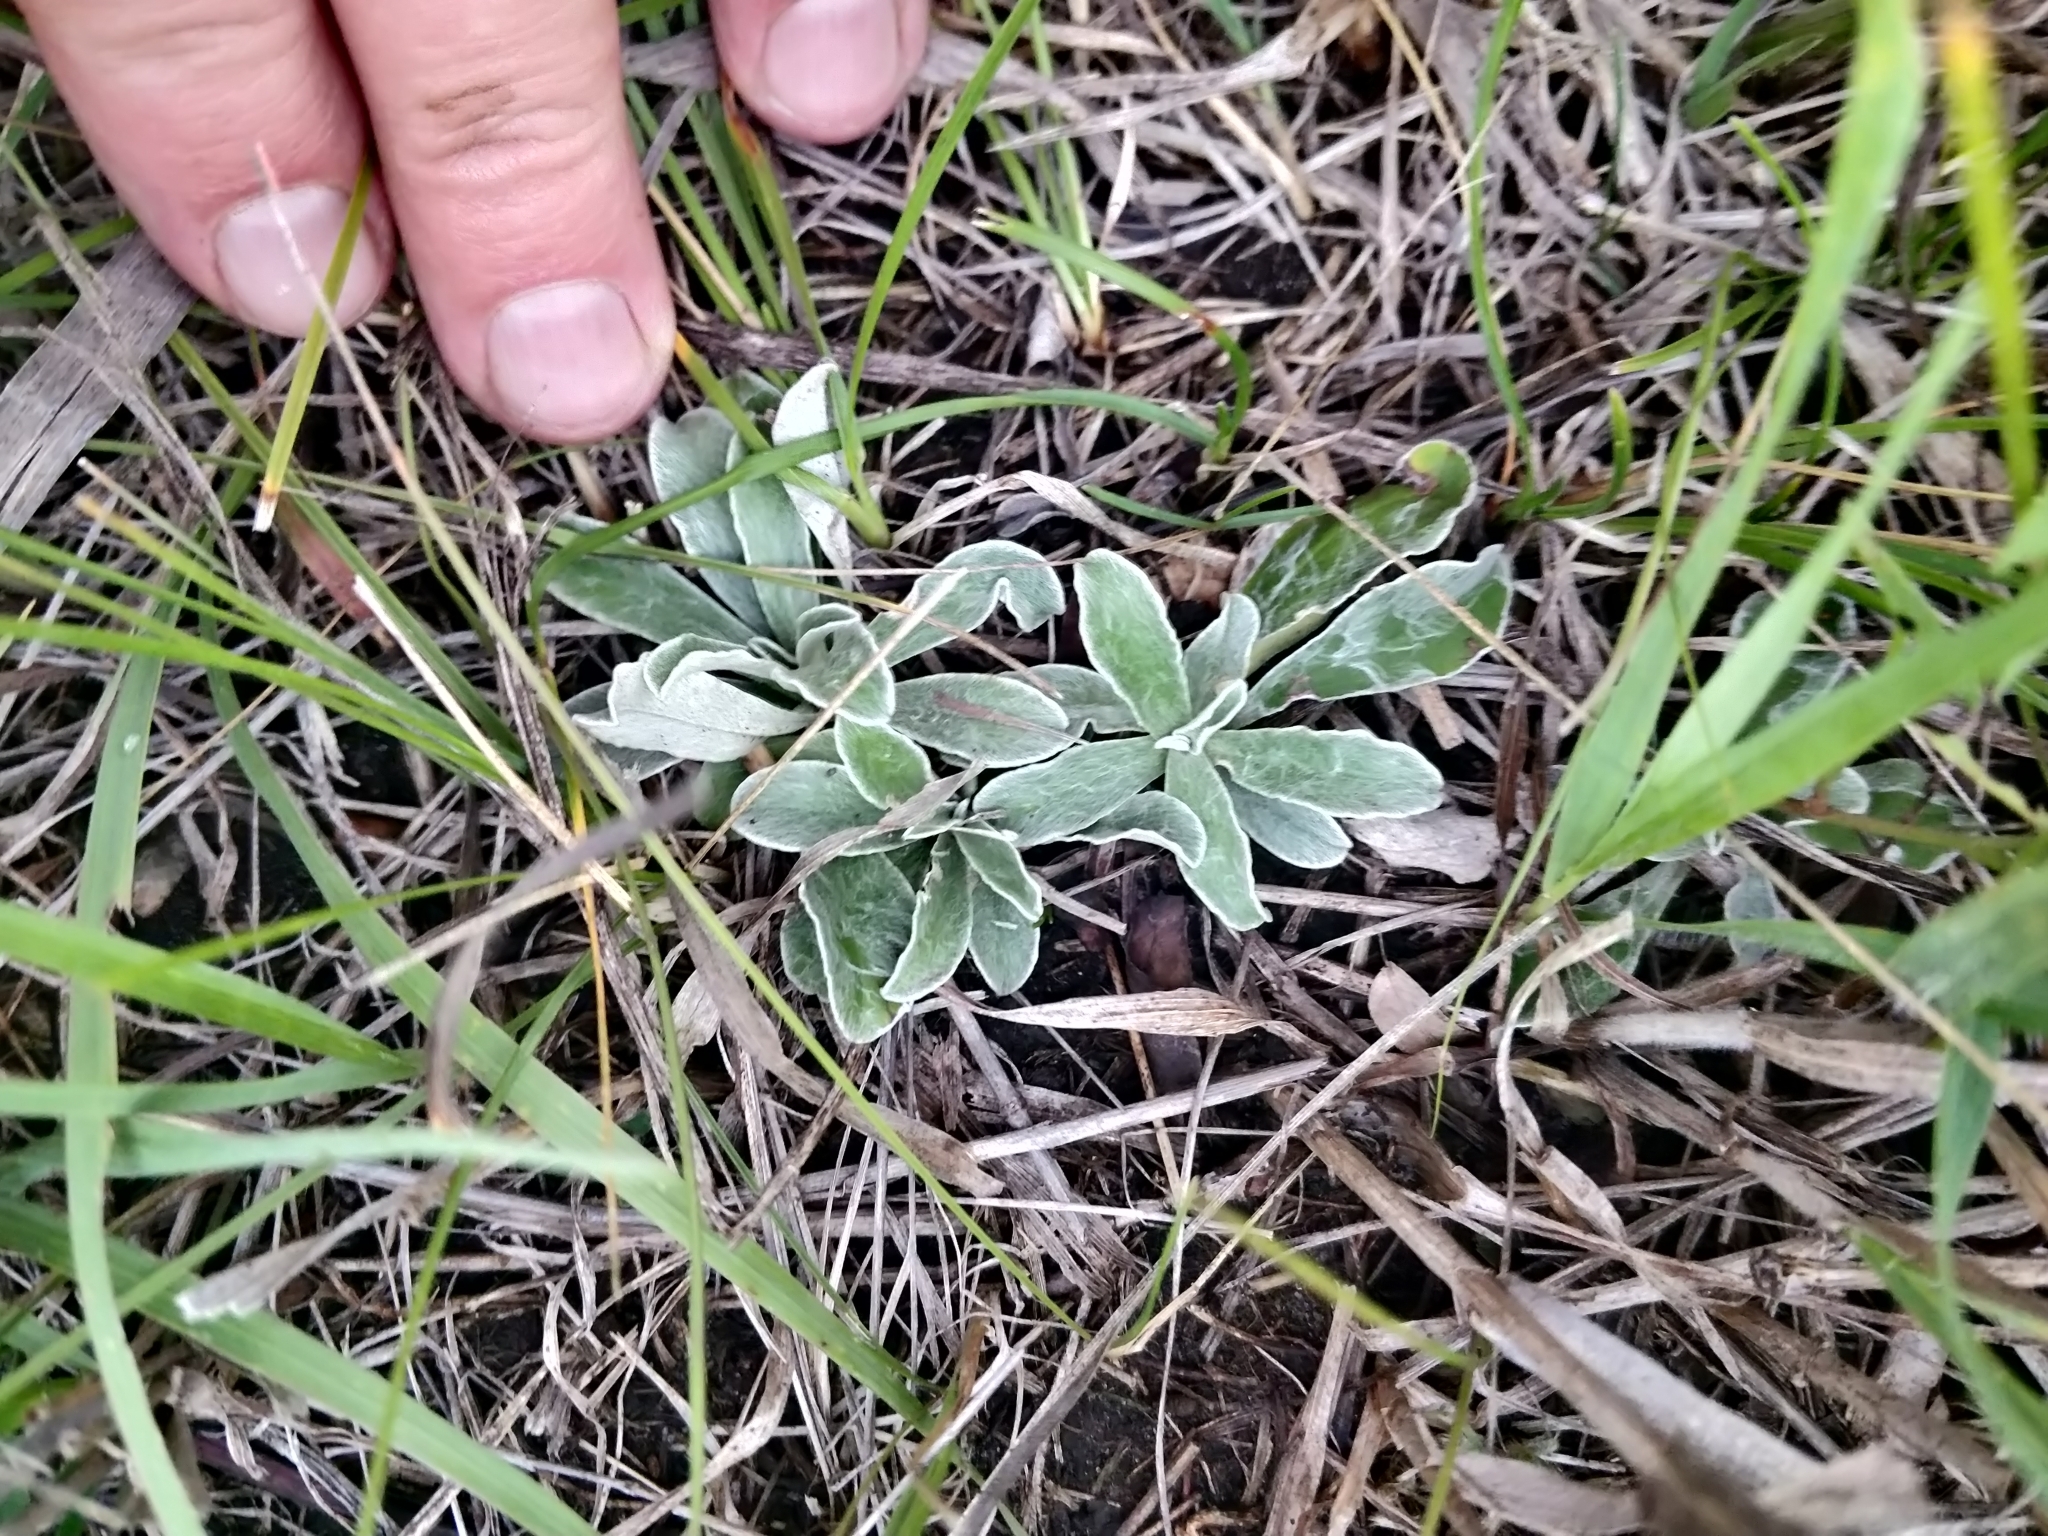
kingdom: Plantae
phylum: Tracheophyta
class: Magnoliopsida
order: Asterales
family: Asteraceae
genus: Antennaria
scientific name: Antennaria neglecta
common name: Field pussytoes
